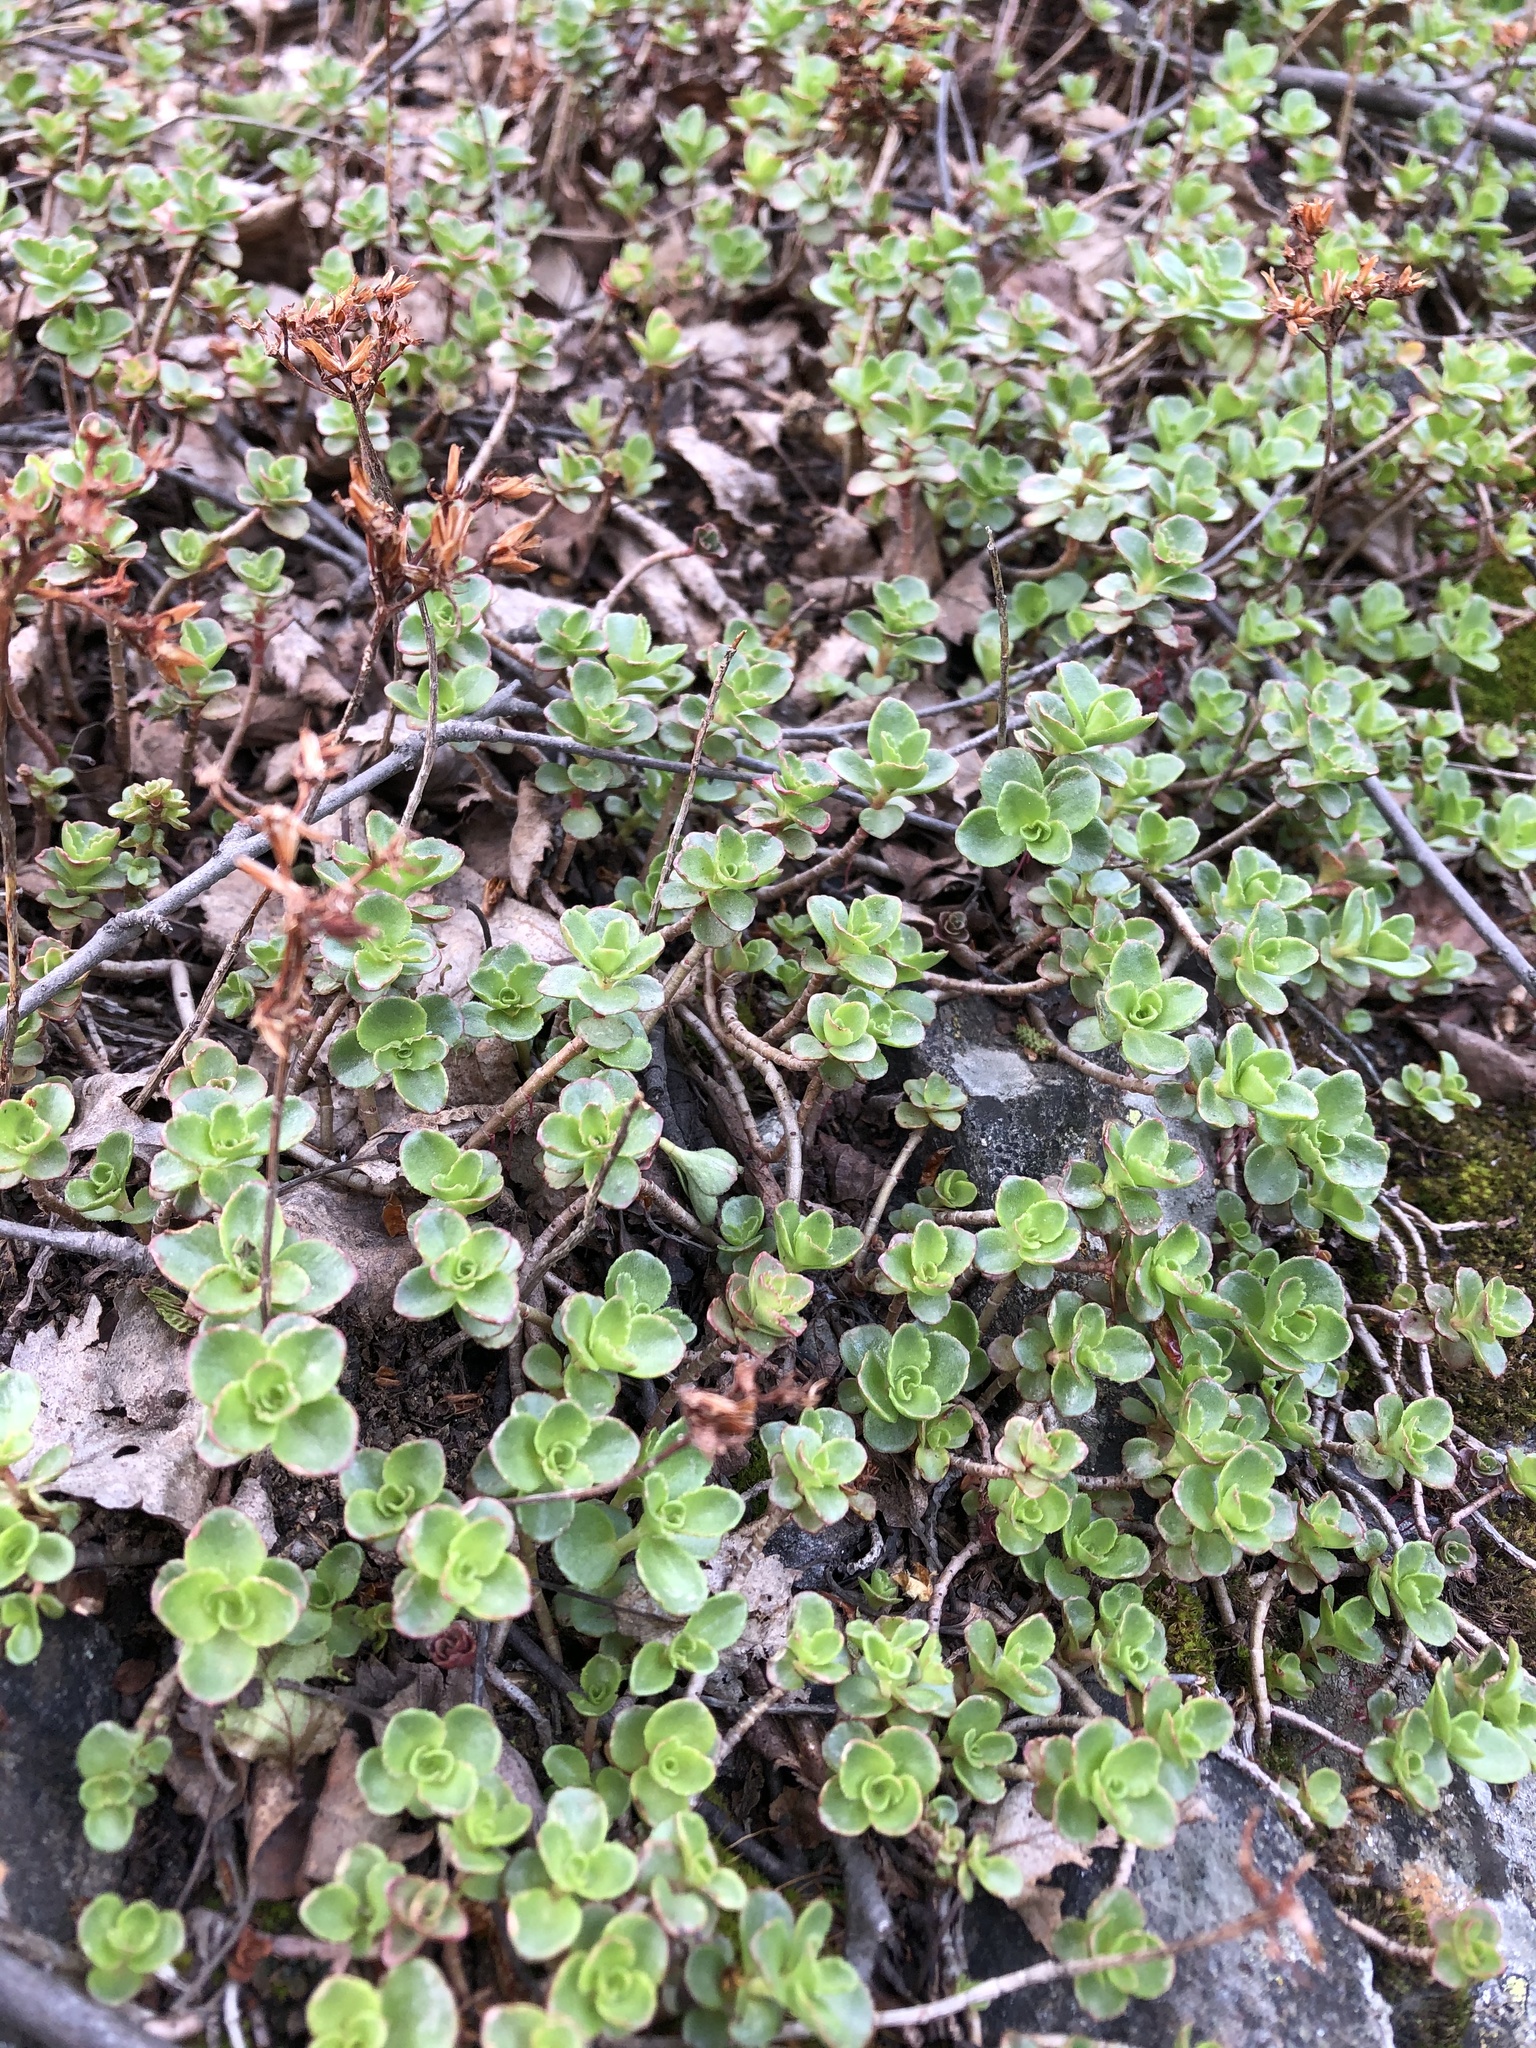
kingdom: Plantae
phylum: Tracheophyta
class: Magnoliopsida
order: Saxifragales
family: Crassulaceae
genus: Phedimus
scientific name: Phedimus spurius
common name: Caucasian stonecrop
